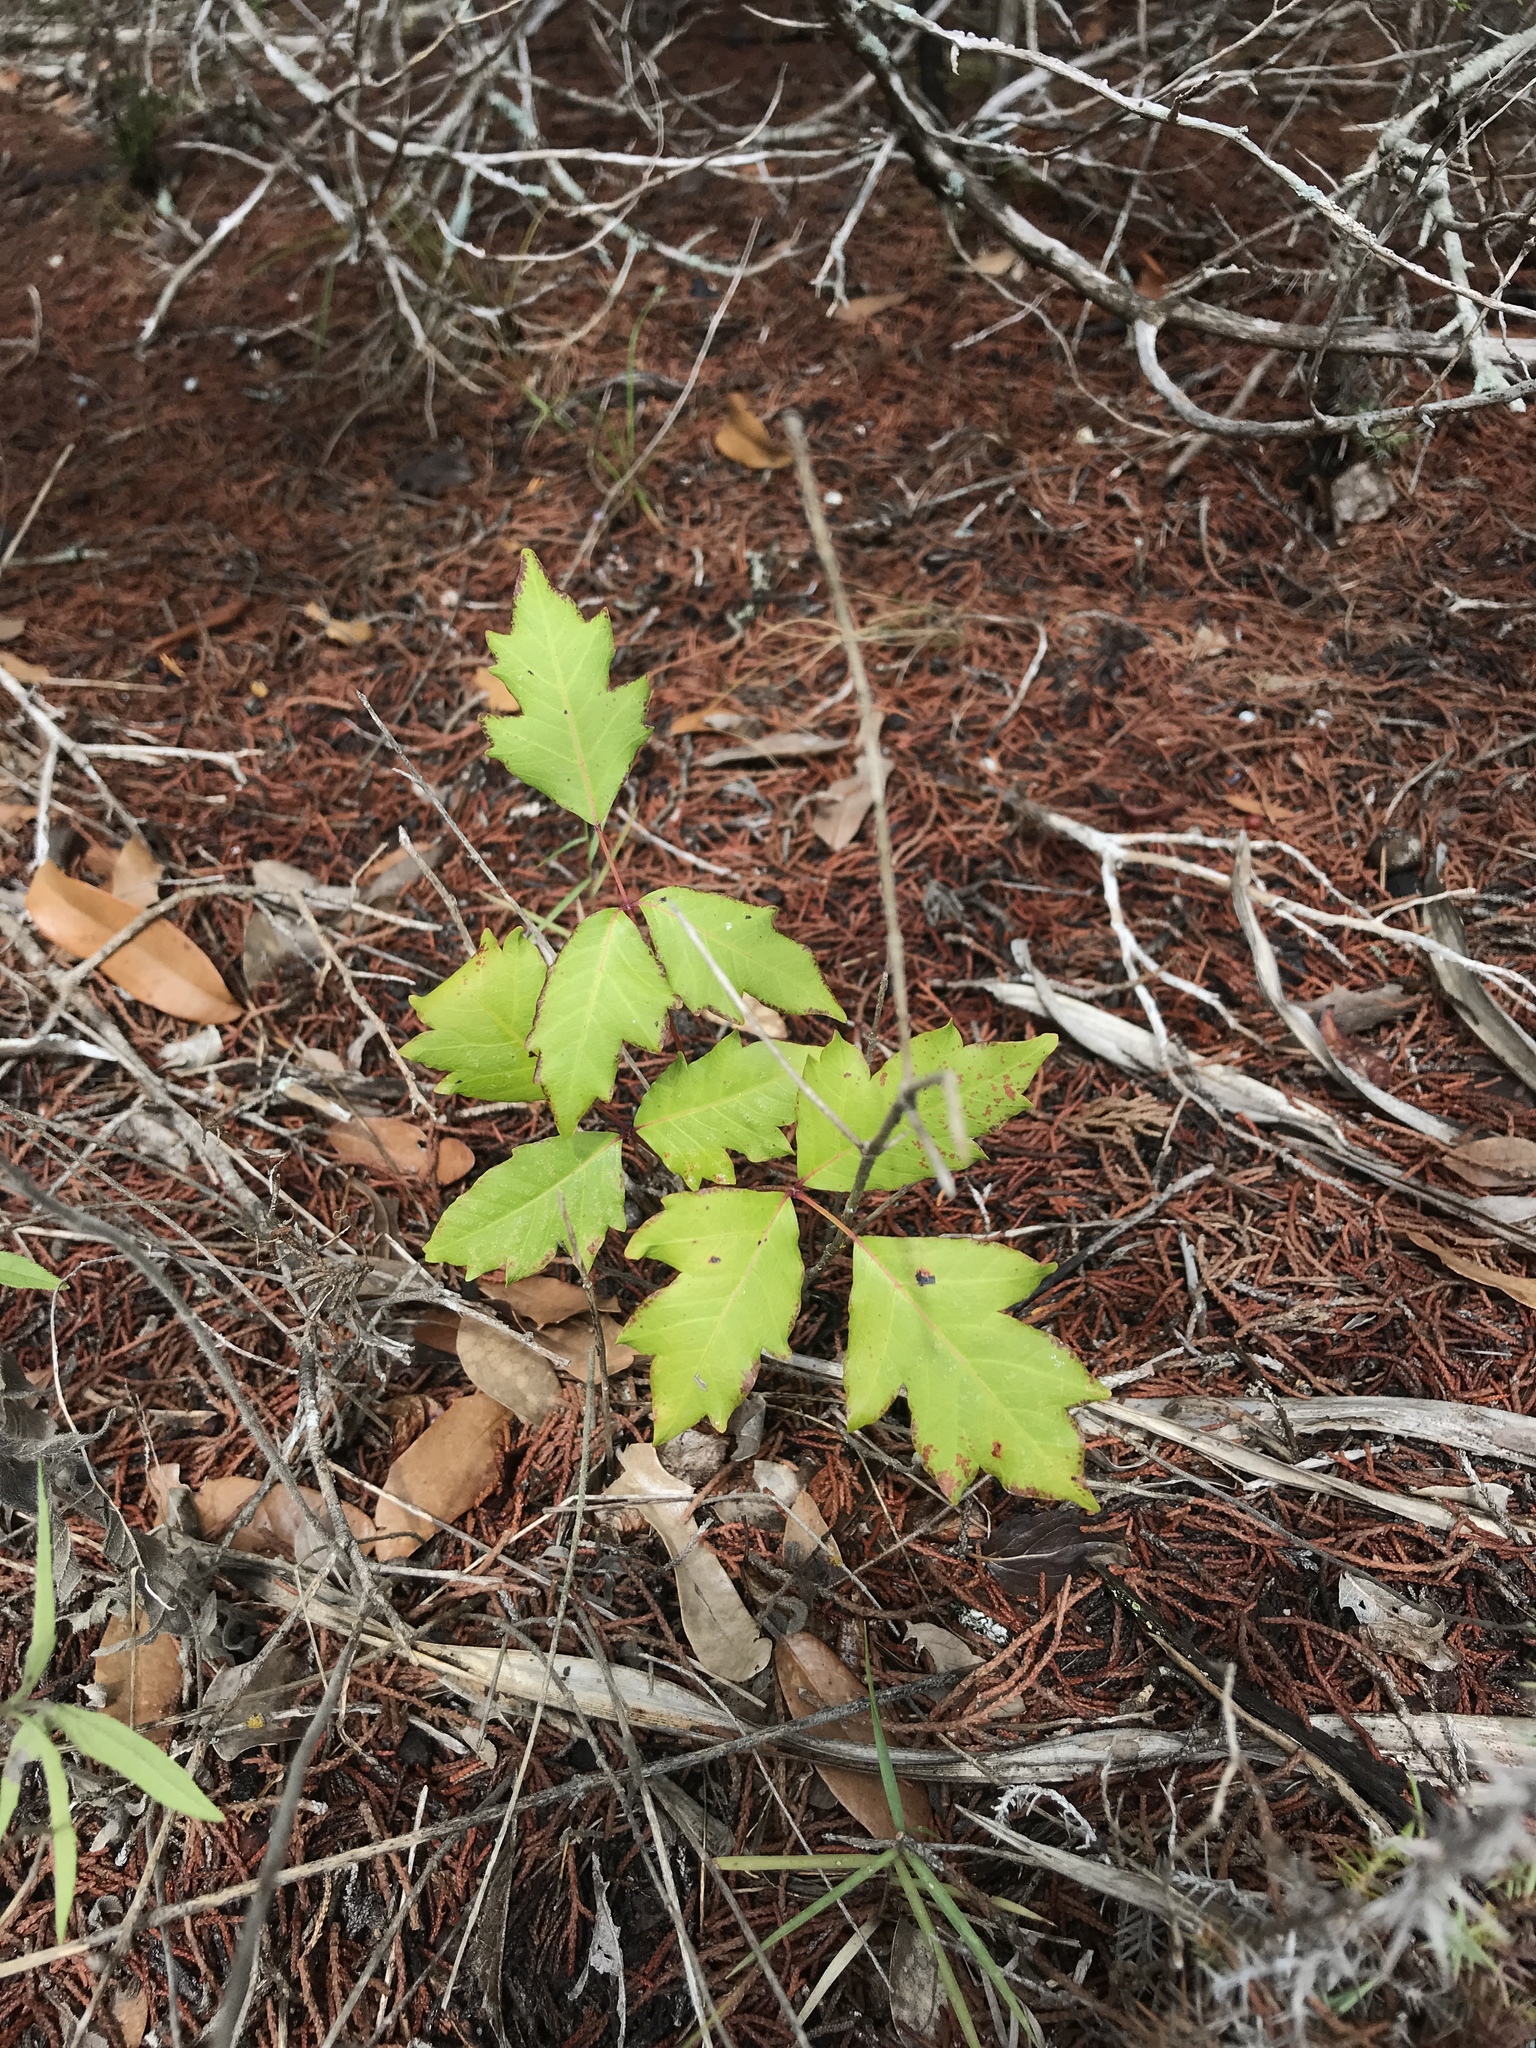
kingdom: Plantae
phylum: Tracheophyta
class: Magnoliopsida
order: Sapindales
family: Anacardiaceae
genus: Toxicodendron
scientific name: Toxicodendron radicans
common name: Poison ivy
